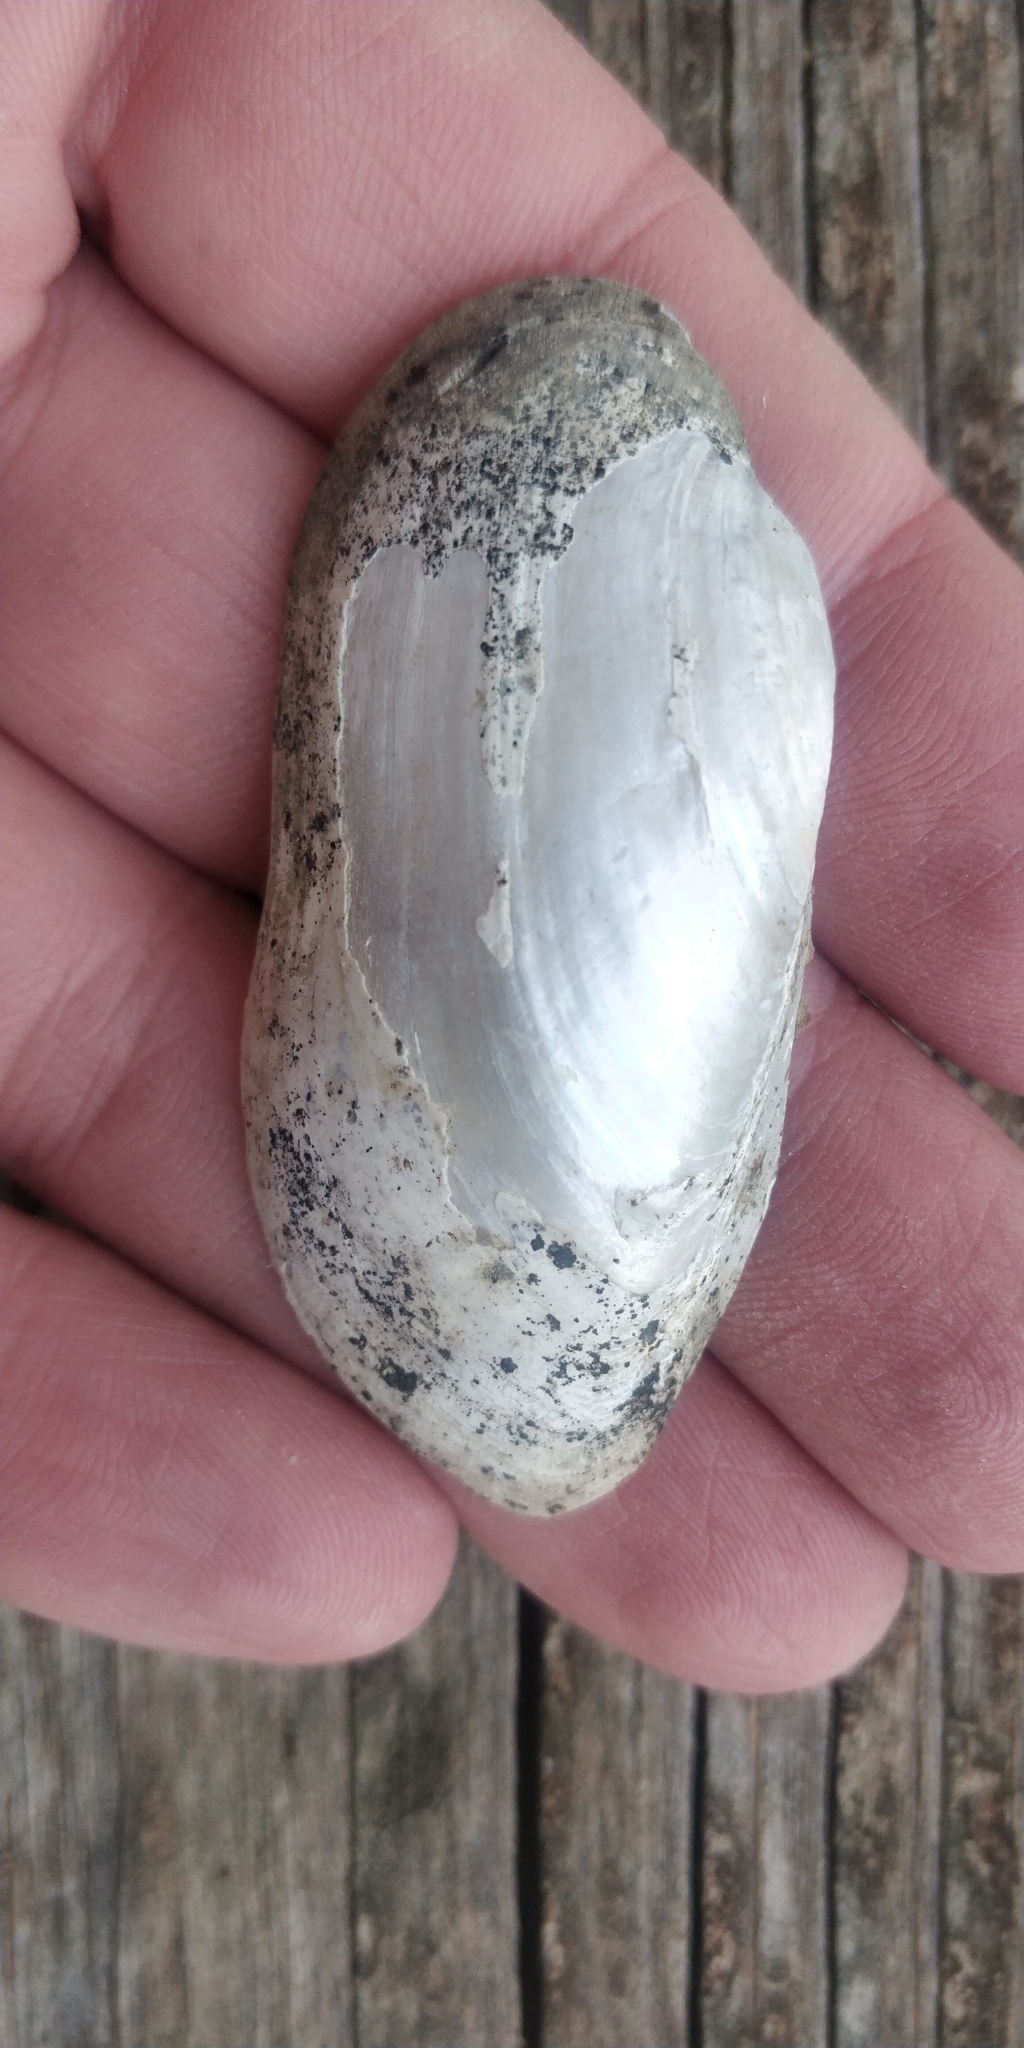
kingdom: Animalia
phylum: Mollusca
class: Bivalvia
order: Unionida
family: Unionidae
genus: Lampsilis
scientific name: Lampsilis teres
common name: Yellow sandshell
